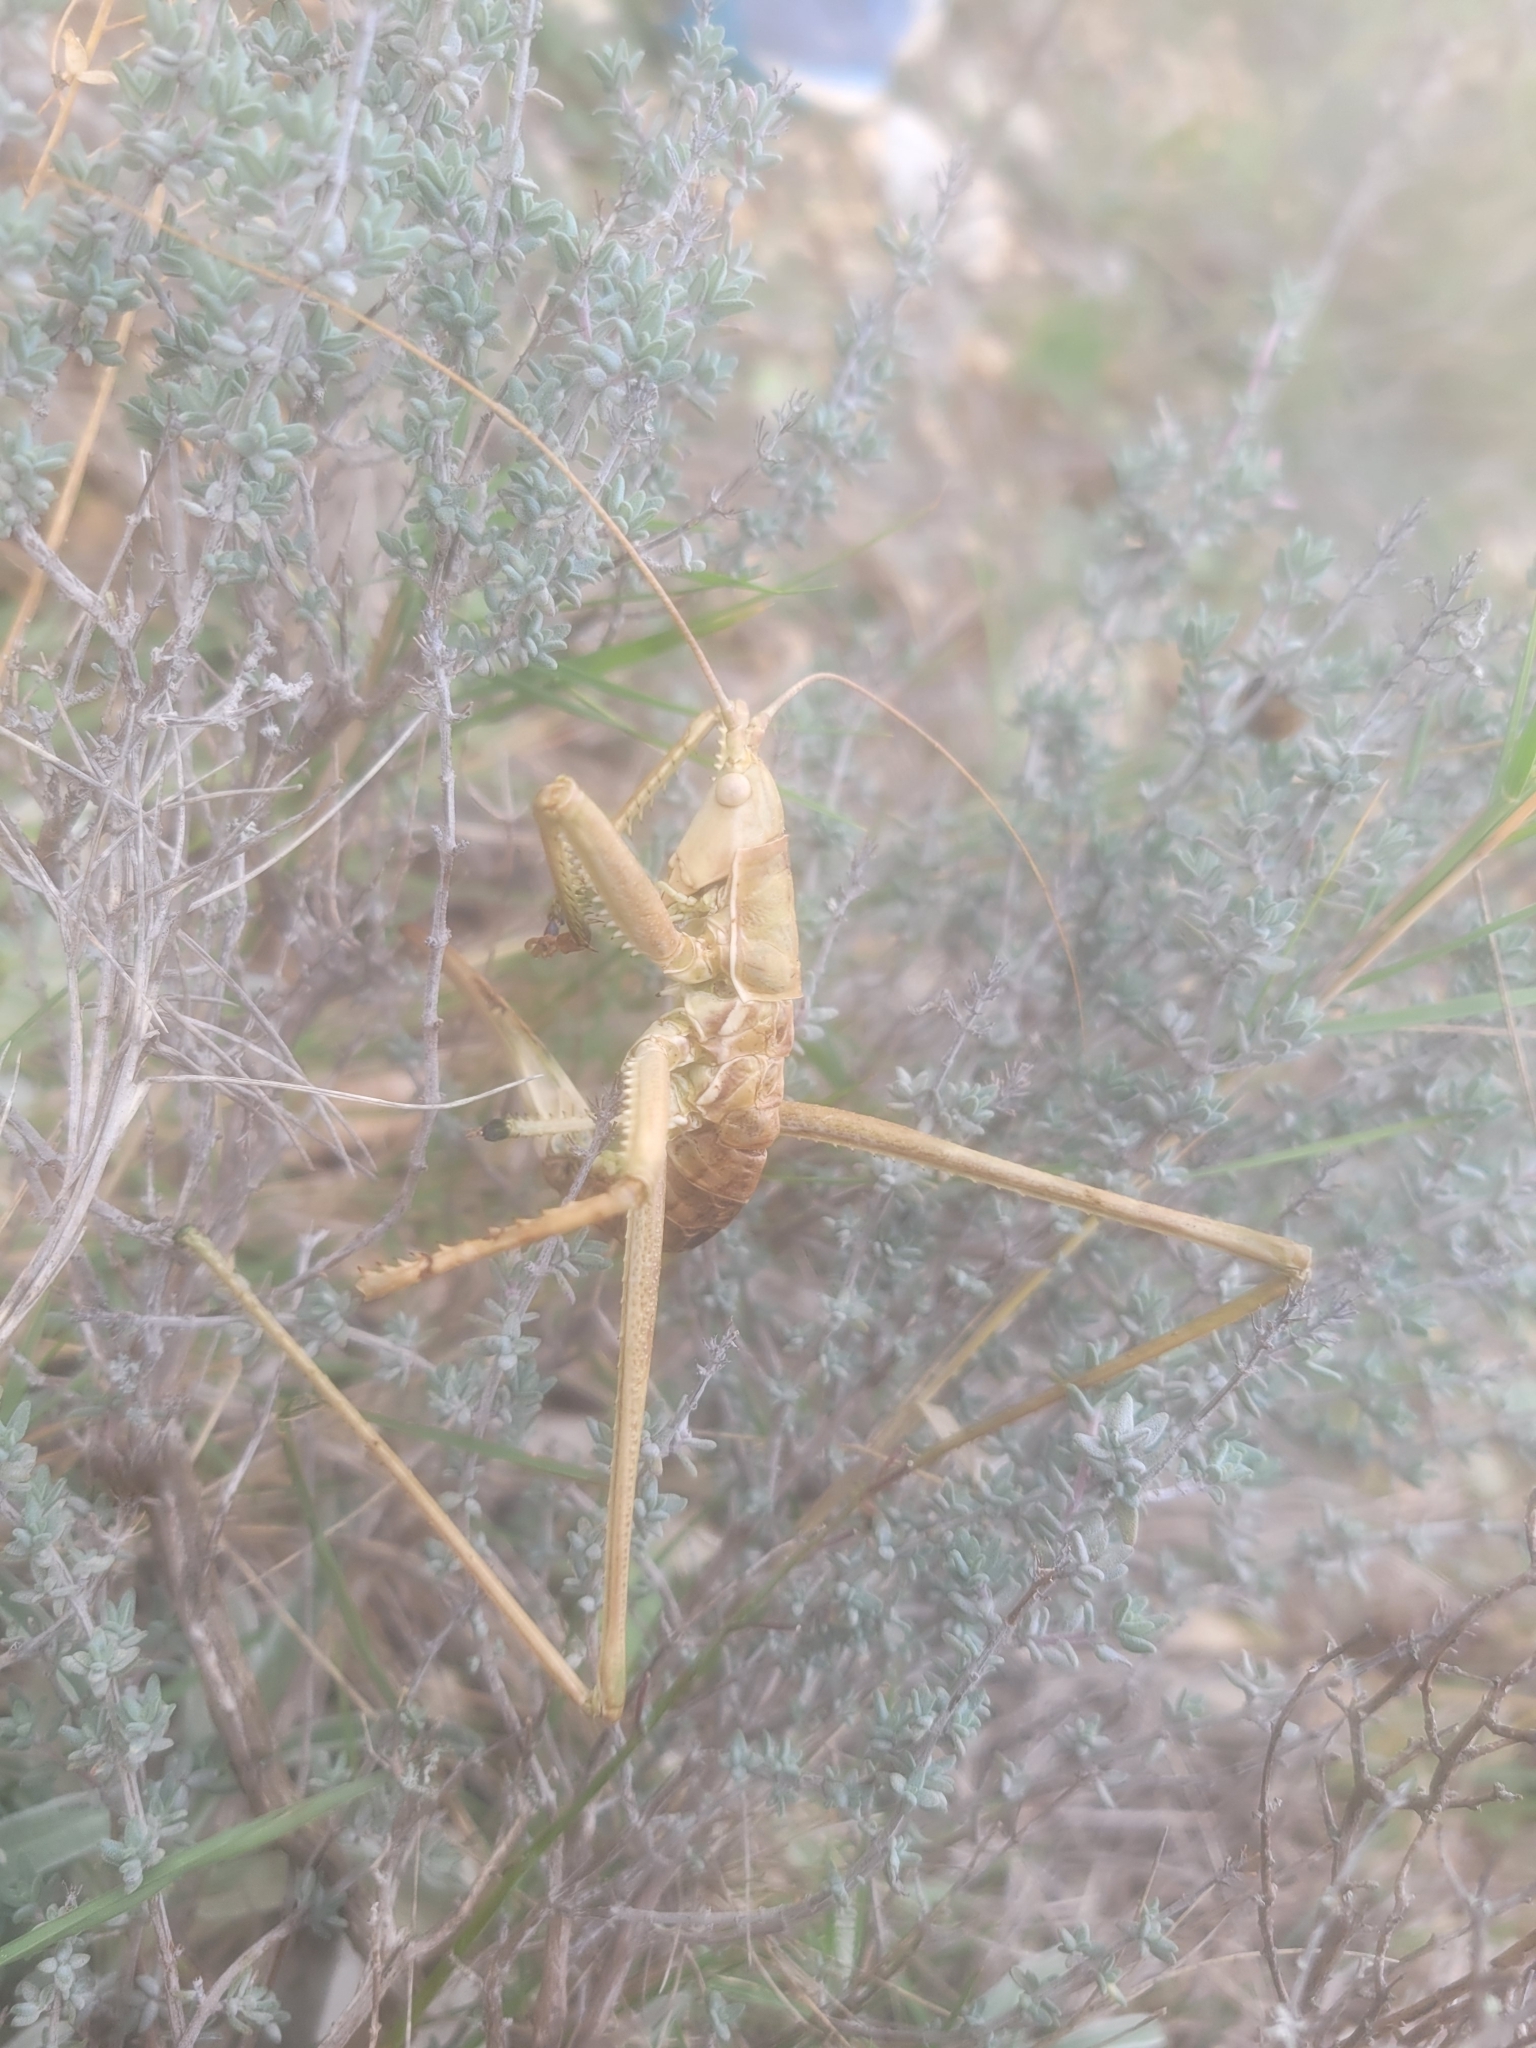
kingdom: Animalia
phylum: Arthropoda
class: Insecta
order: Orthoptera
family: Tettigoniidae
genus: Saga
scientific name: Saga pedo
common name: Common predatory bush-cricket
